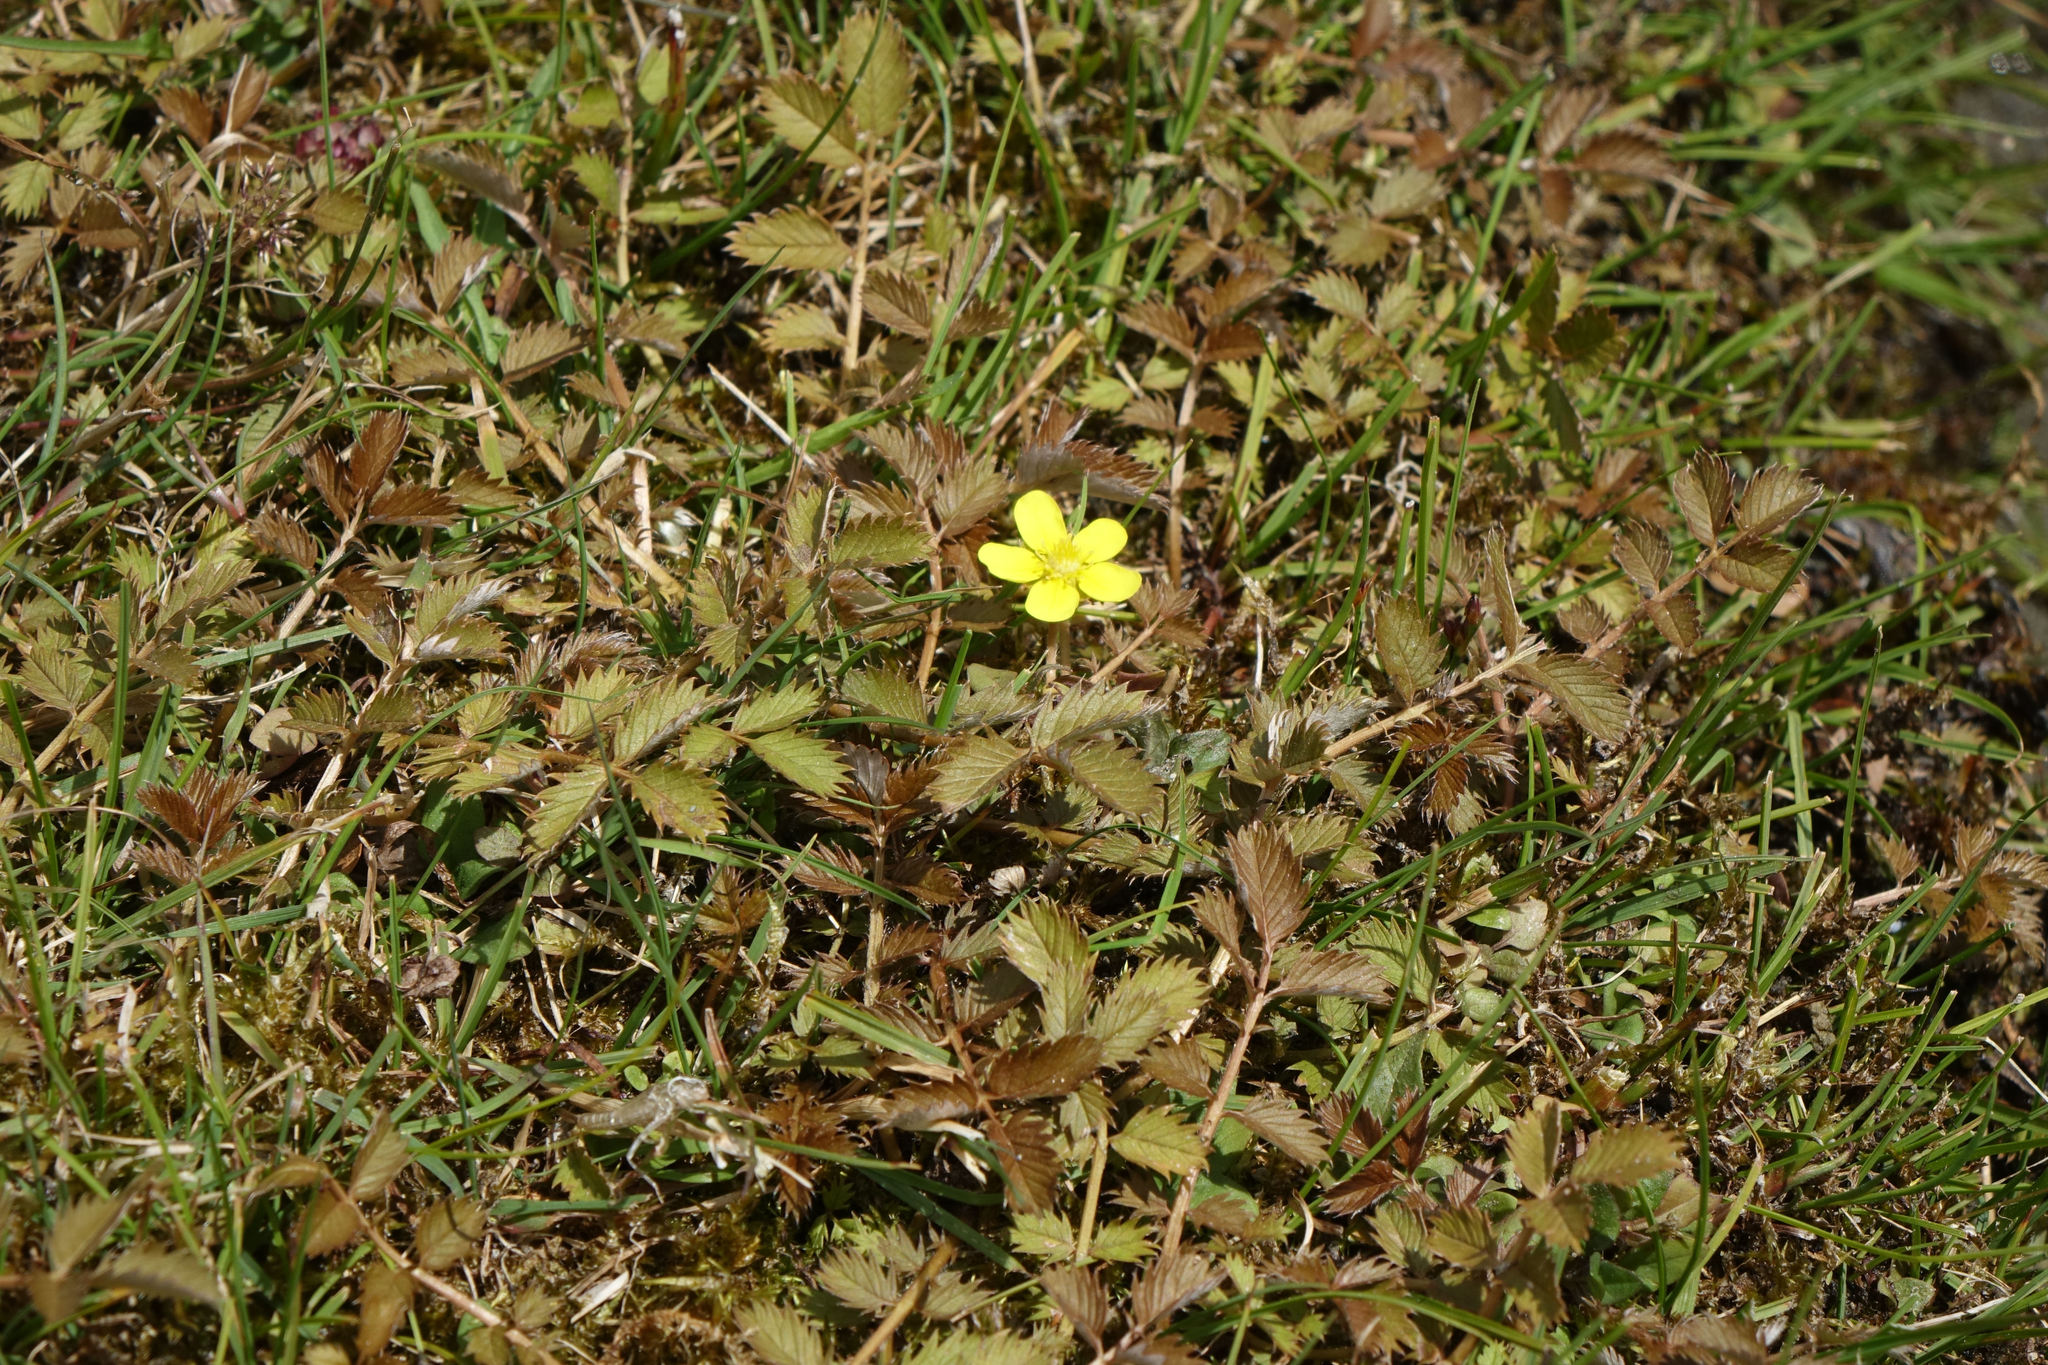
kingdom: Plantae
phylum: Tracheophyta
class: Magnoliopsida
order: Rosales
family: Rosaceae
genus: Argentina
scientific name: Argentina anserinoides
